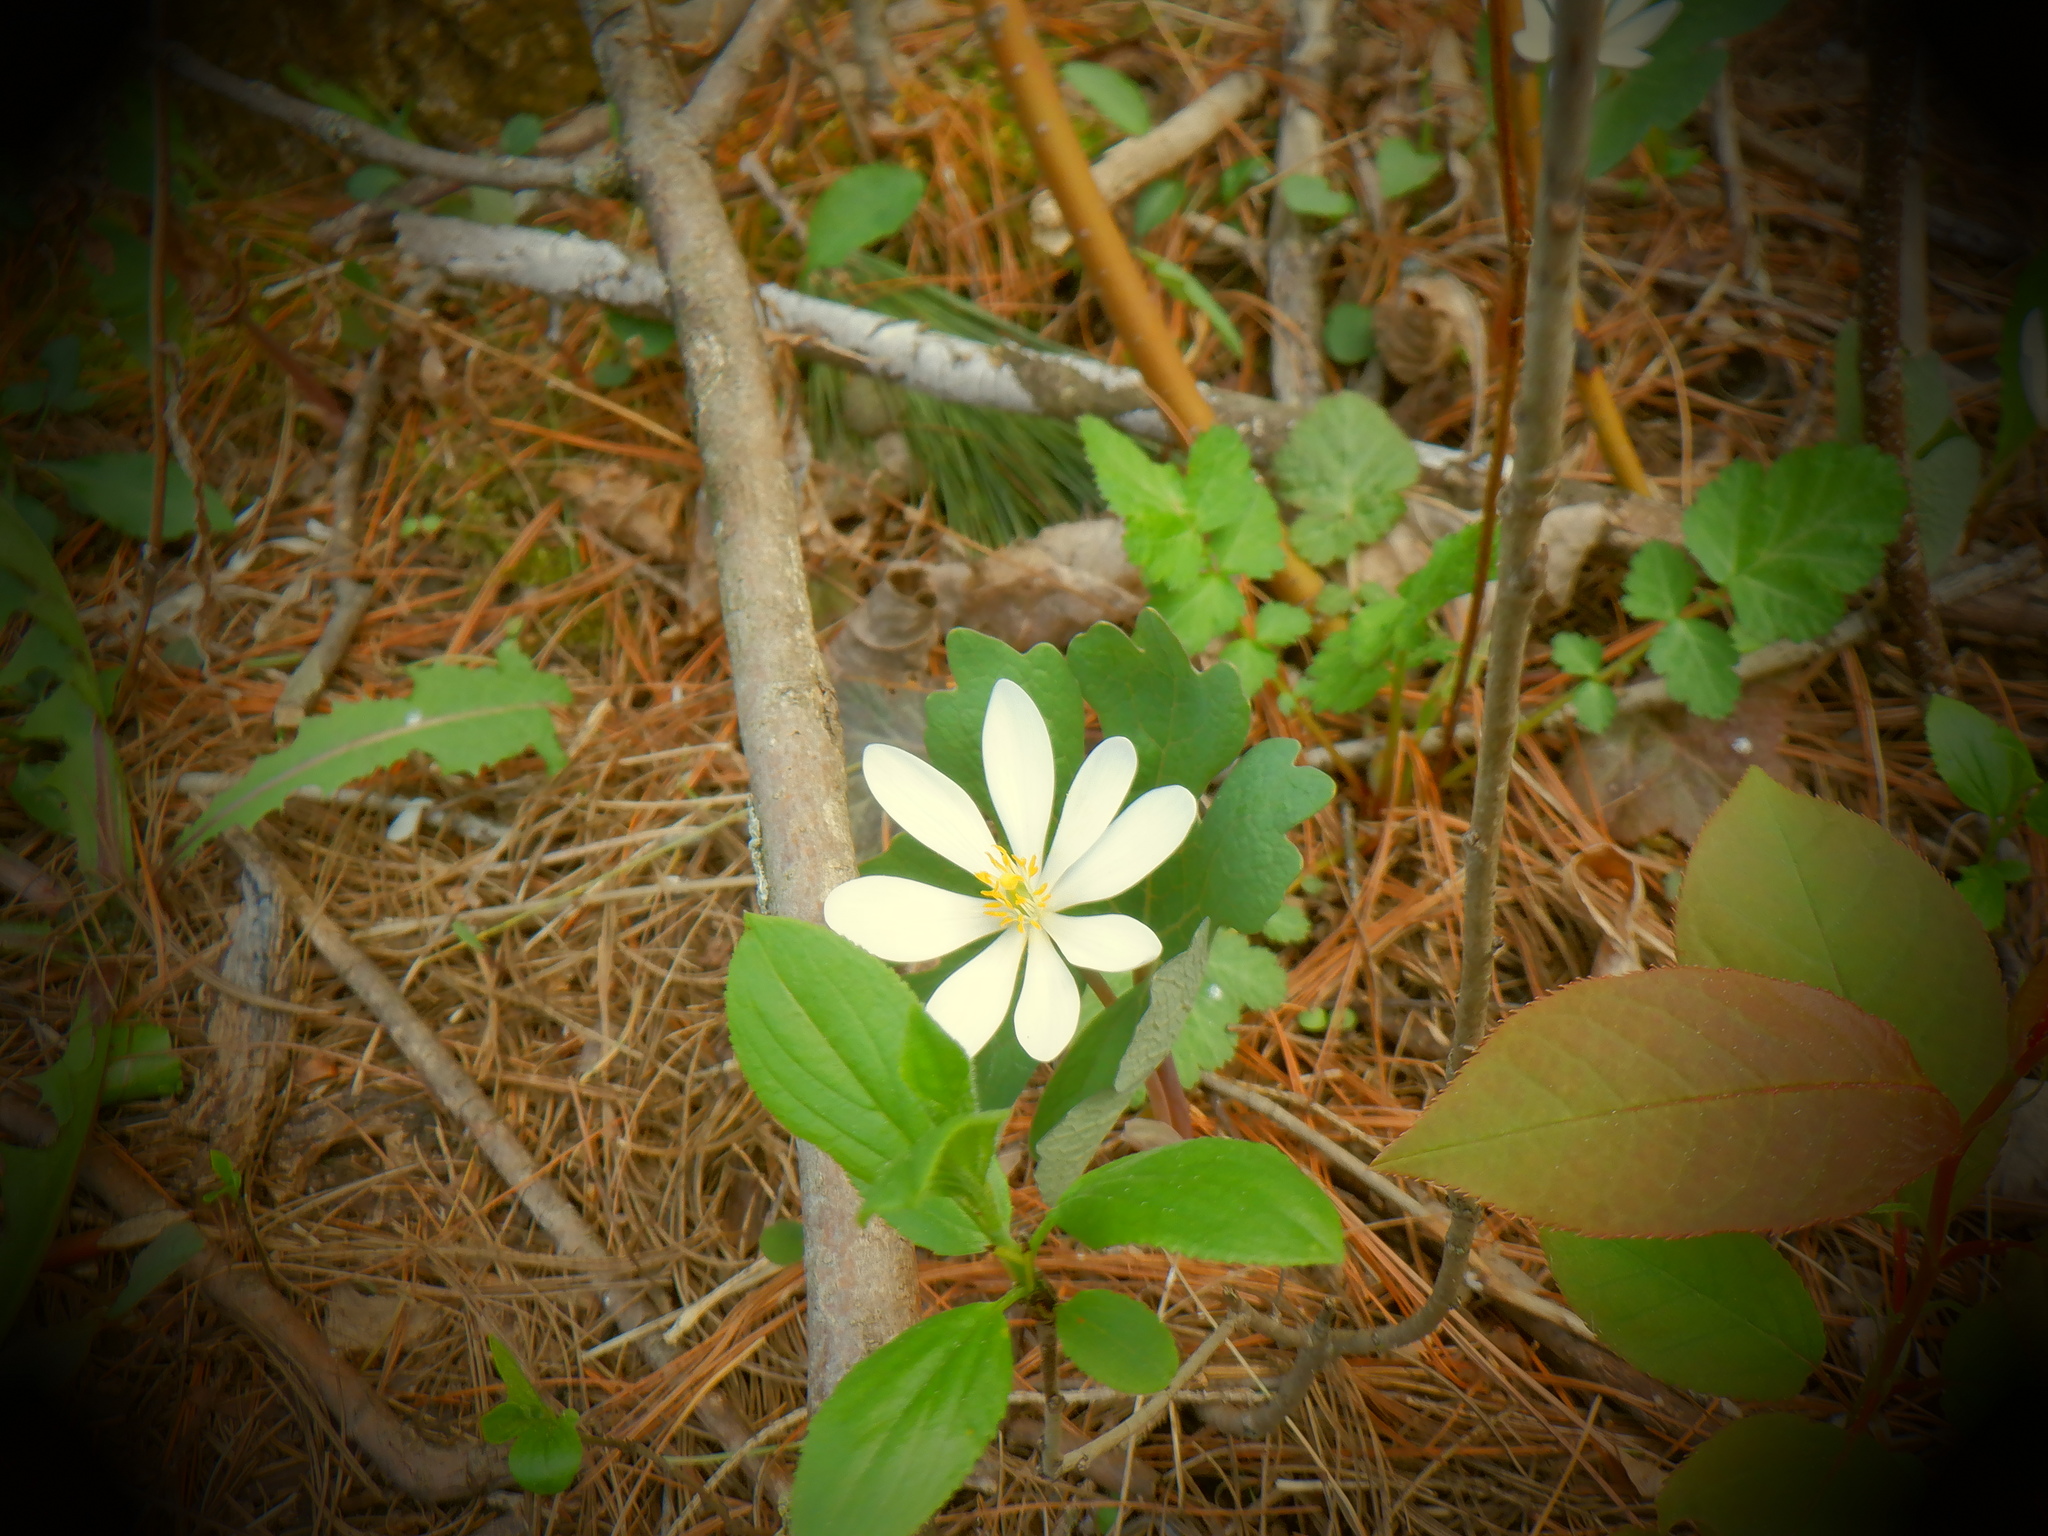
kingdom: Plantae
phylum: Tracheophyta
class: Magnoliopsida
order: Ranunculales
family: Papaveraceae
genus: Sanguinaria
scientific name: Sanguinaria canadensis
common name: Bloodroot
